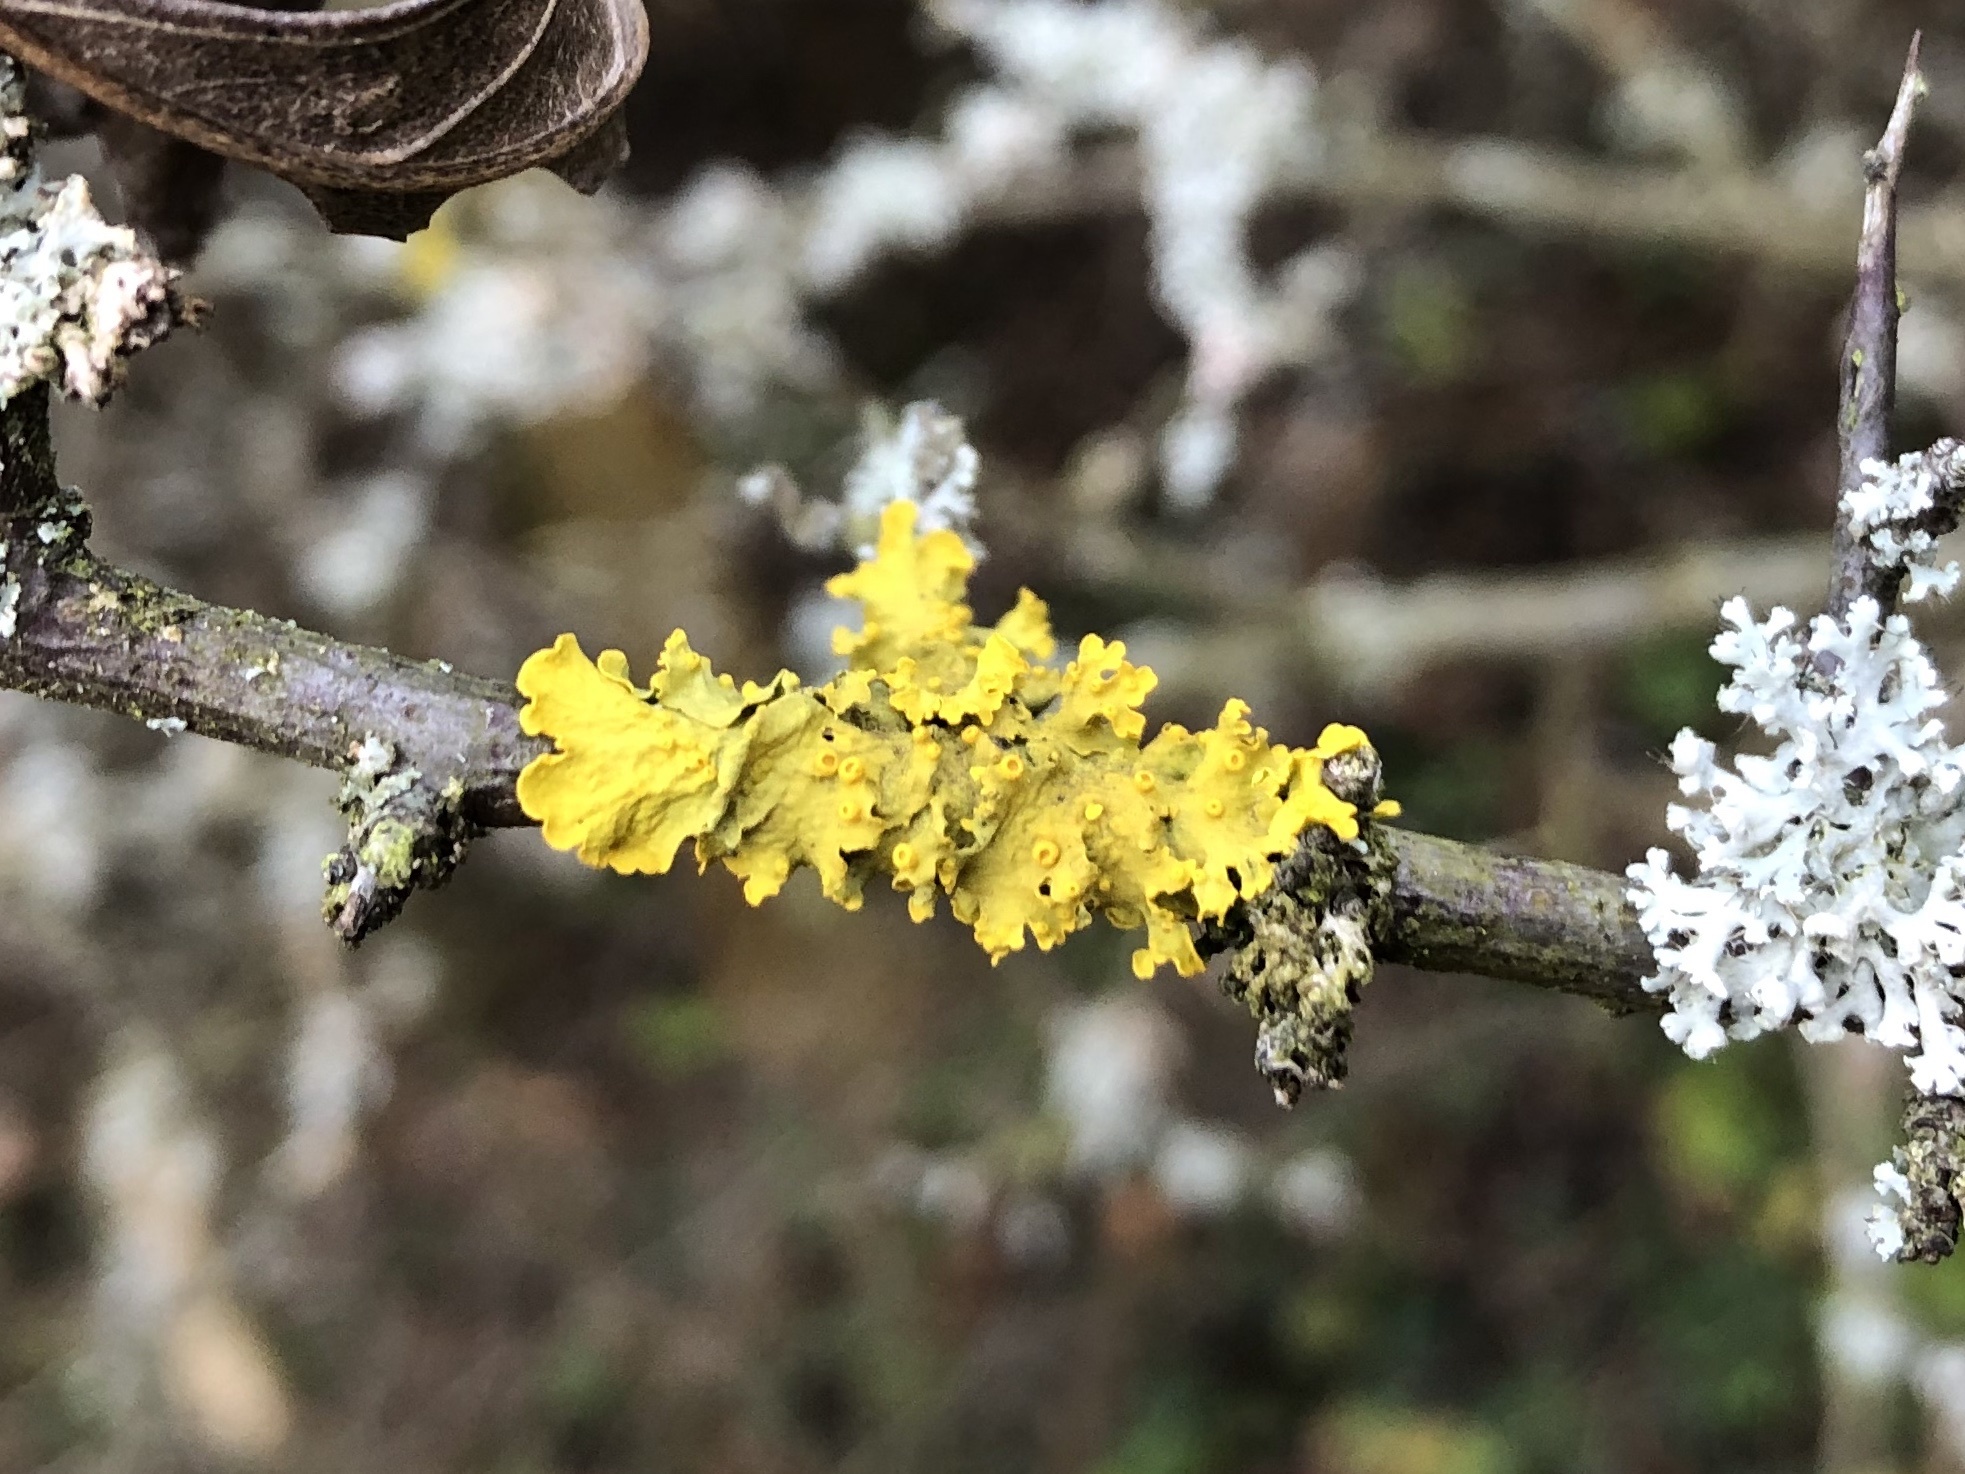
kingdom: Fungi
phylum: Ascomycota
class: Lecanoromycetes
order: Teloschistales
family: Teloschistaceae
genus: Xanthoria
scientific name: Xanthoria parietina
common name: Common orange lichen
